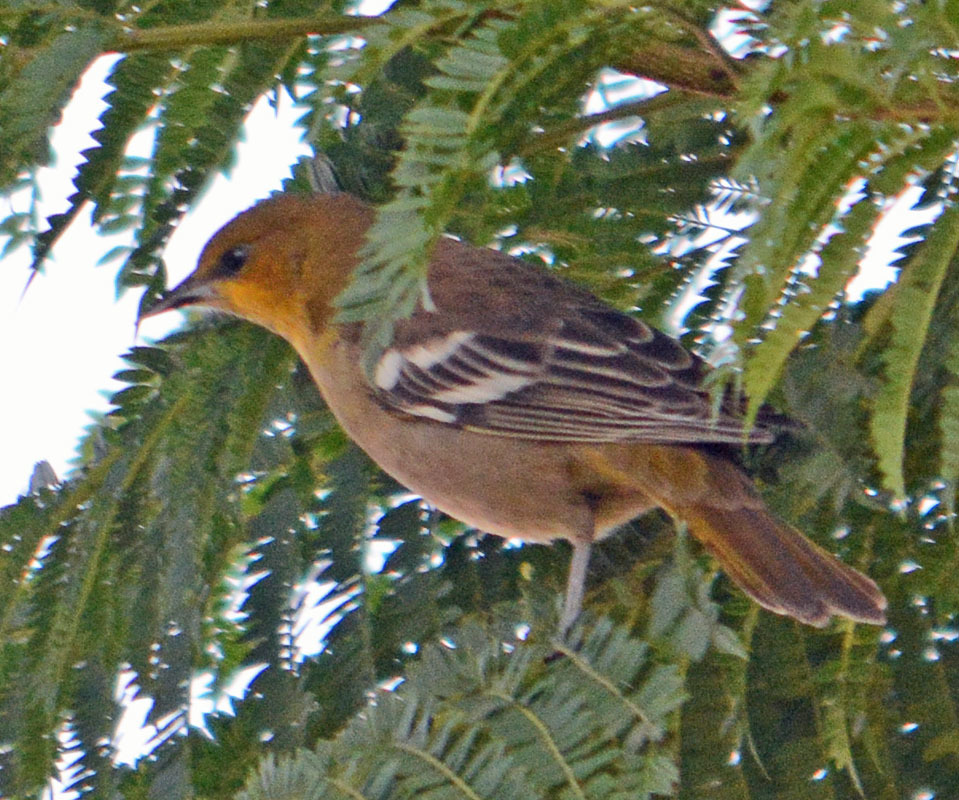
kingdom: Animalia
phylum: Chordata
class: Aves
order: Passeriformes
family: Icteridae
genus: Icterus
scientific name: Icterus bullockii
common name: Bullock's oriole
